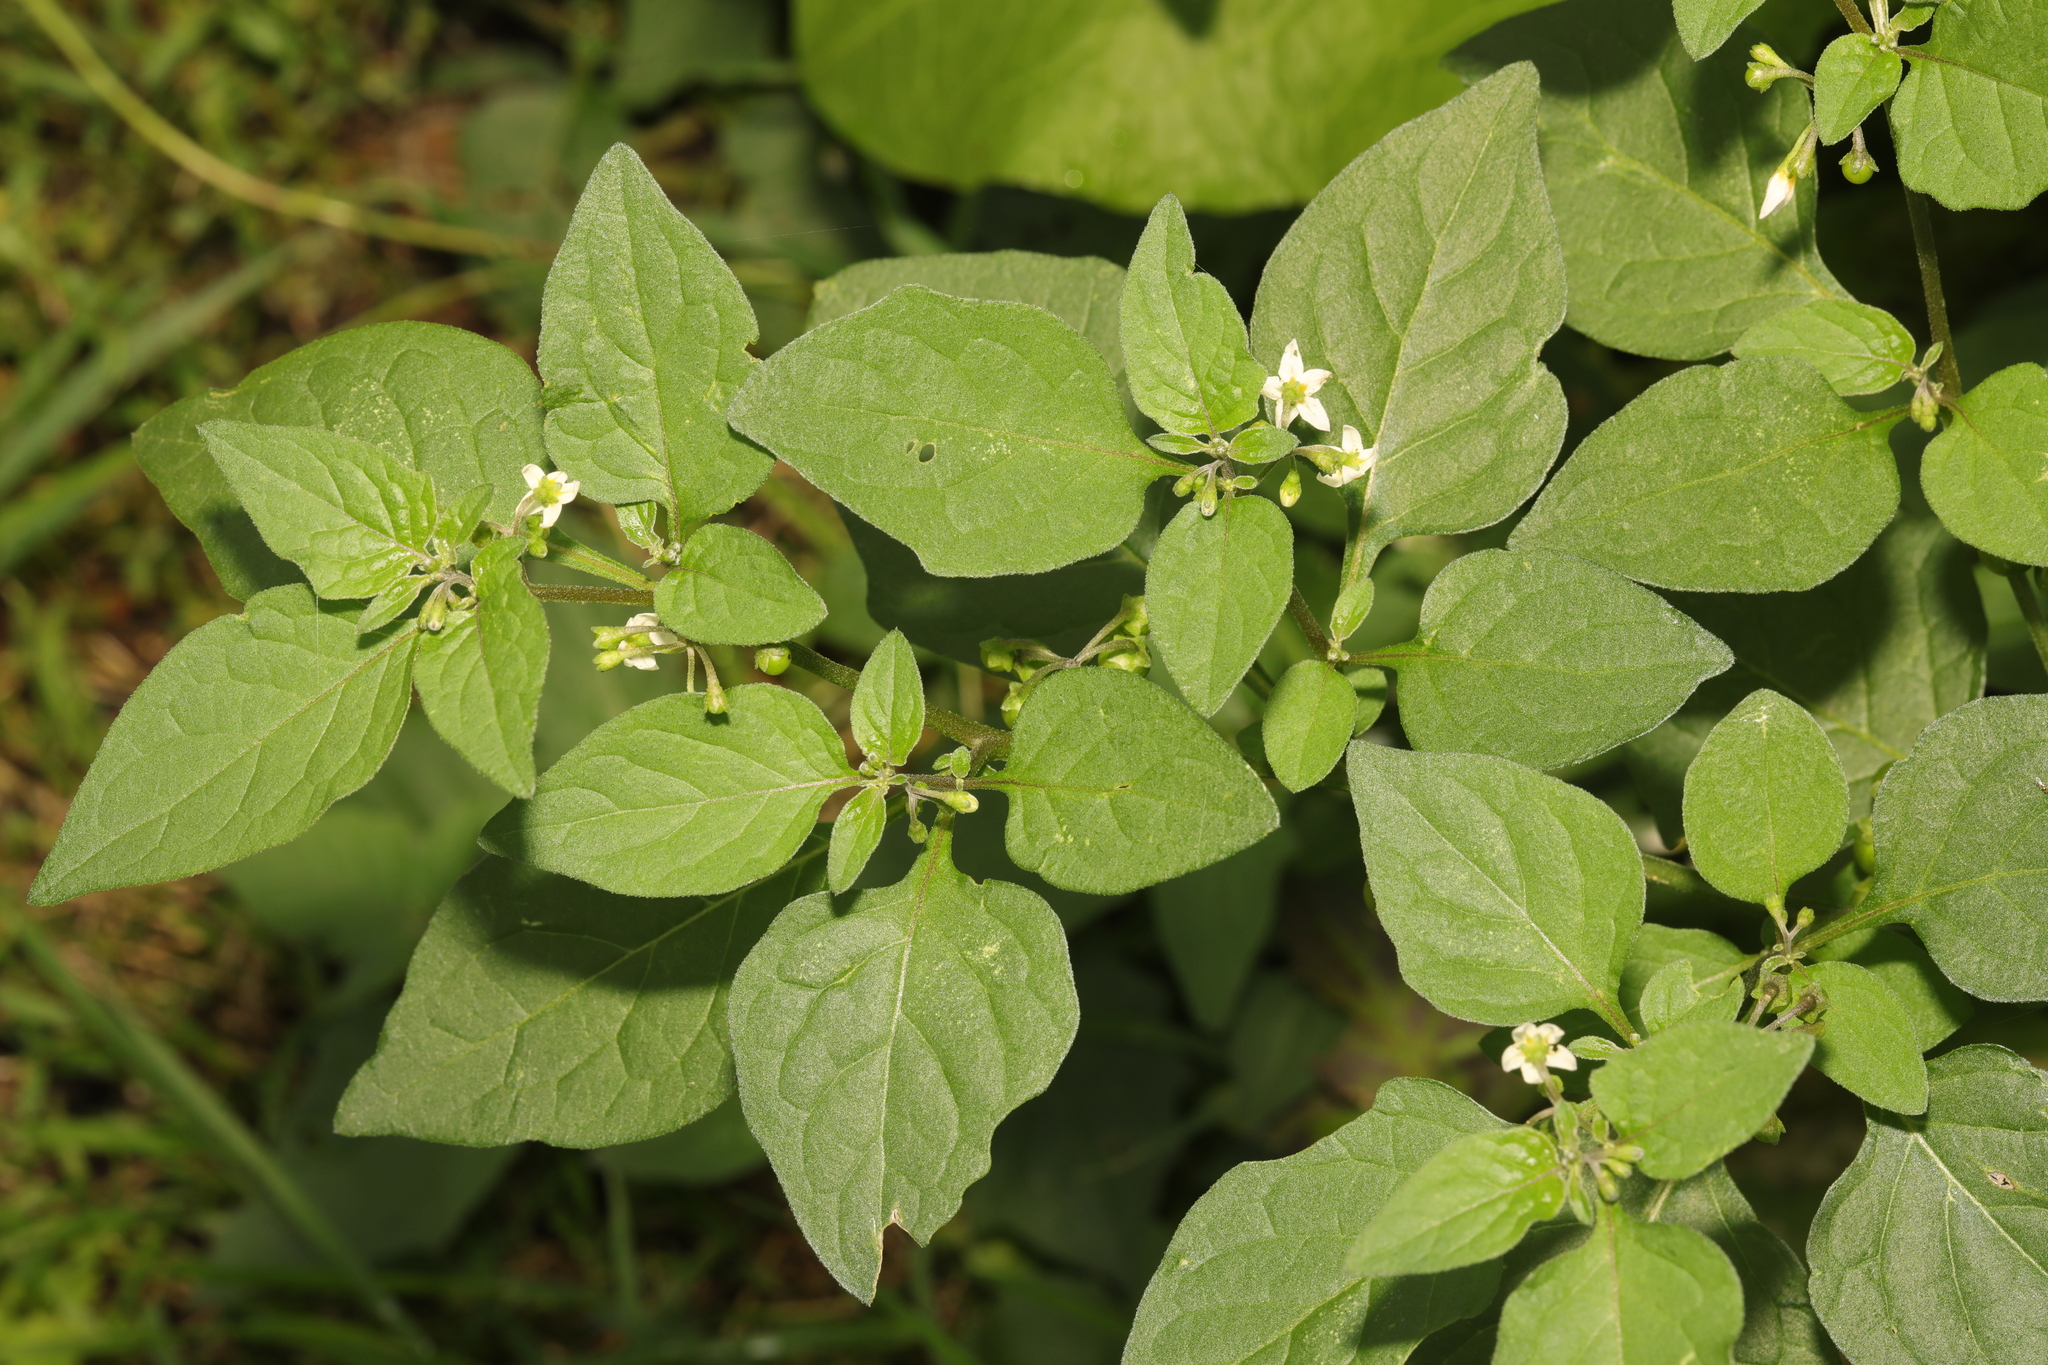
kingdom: Plantae
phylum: Tracheophyta
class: Magnoliopsida
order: Solanales
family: Solanaceae
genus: Solanum
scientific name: Solanum nigrum
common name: Black nightshade
